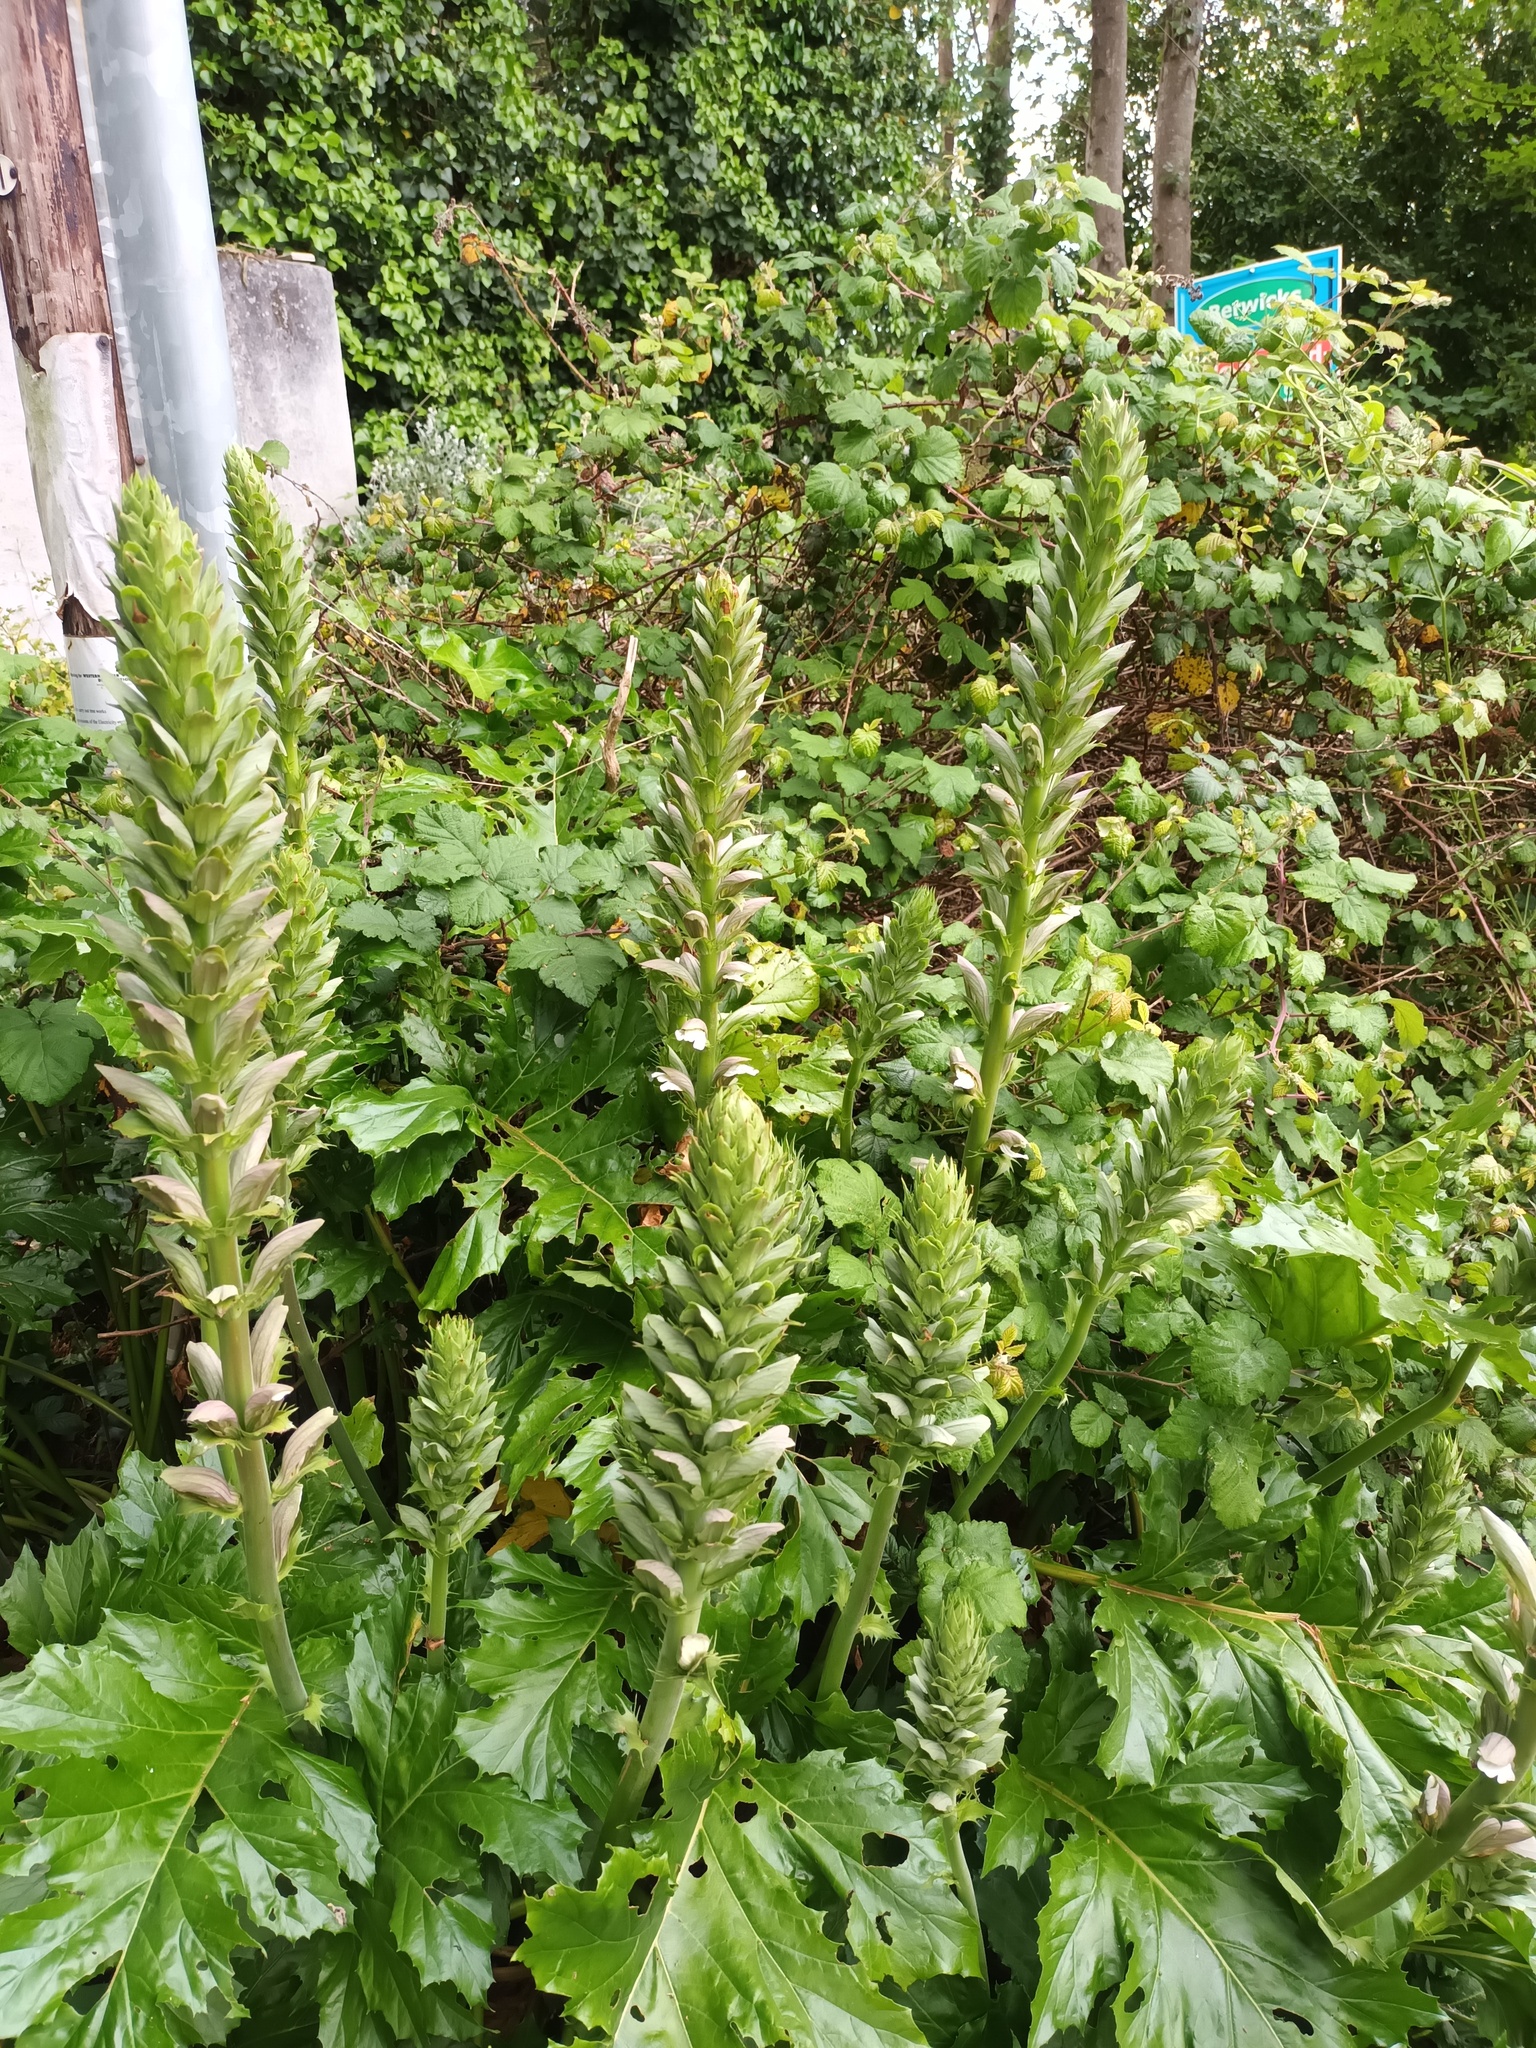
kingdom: Plantae
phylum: Tracheophyta
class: Magnoliopsida
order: Lamiales
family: Acanthaceae
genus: Acanthus
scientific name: Acanthus mollis
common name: Bear's-breech
